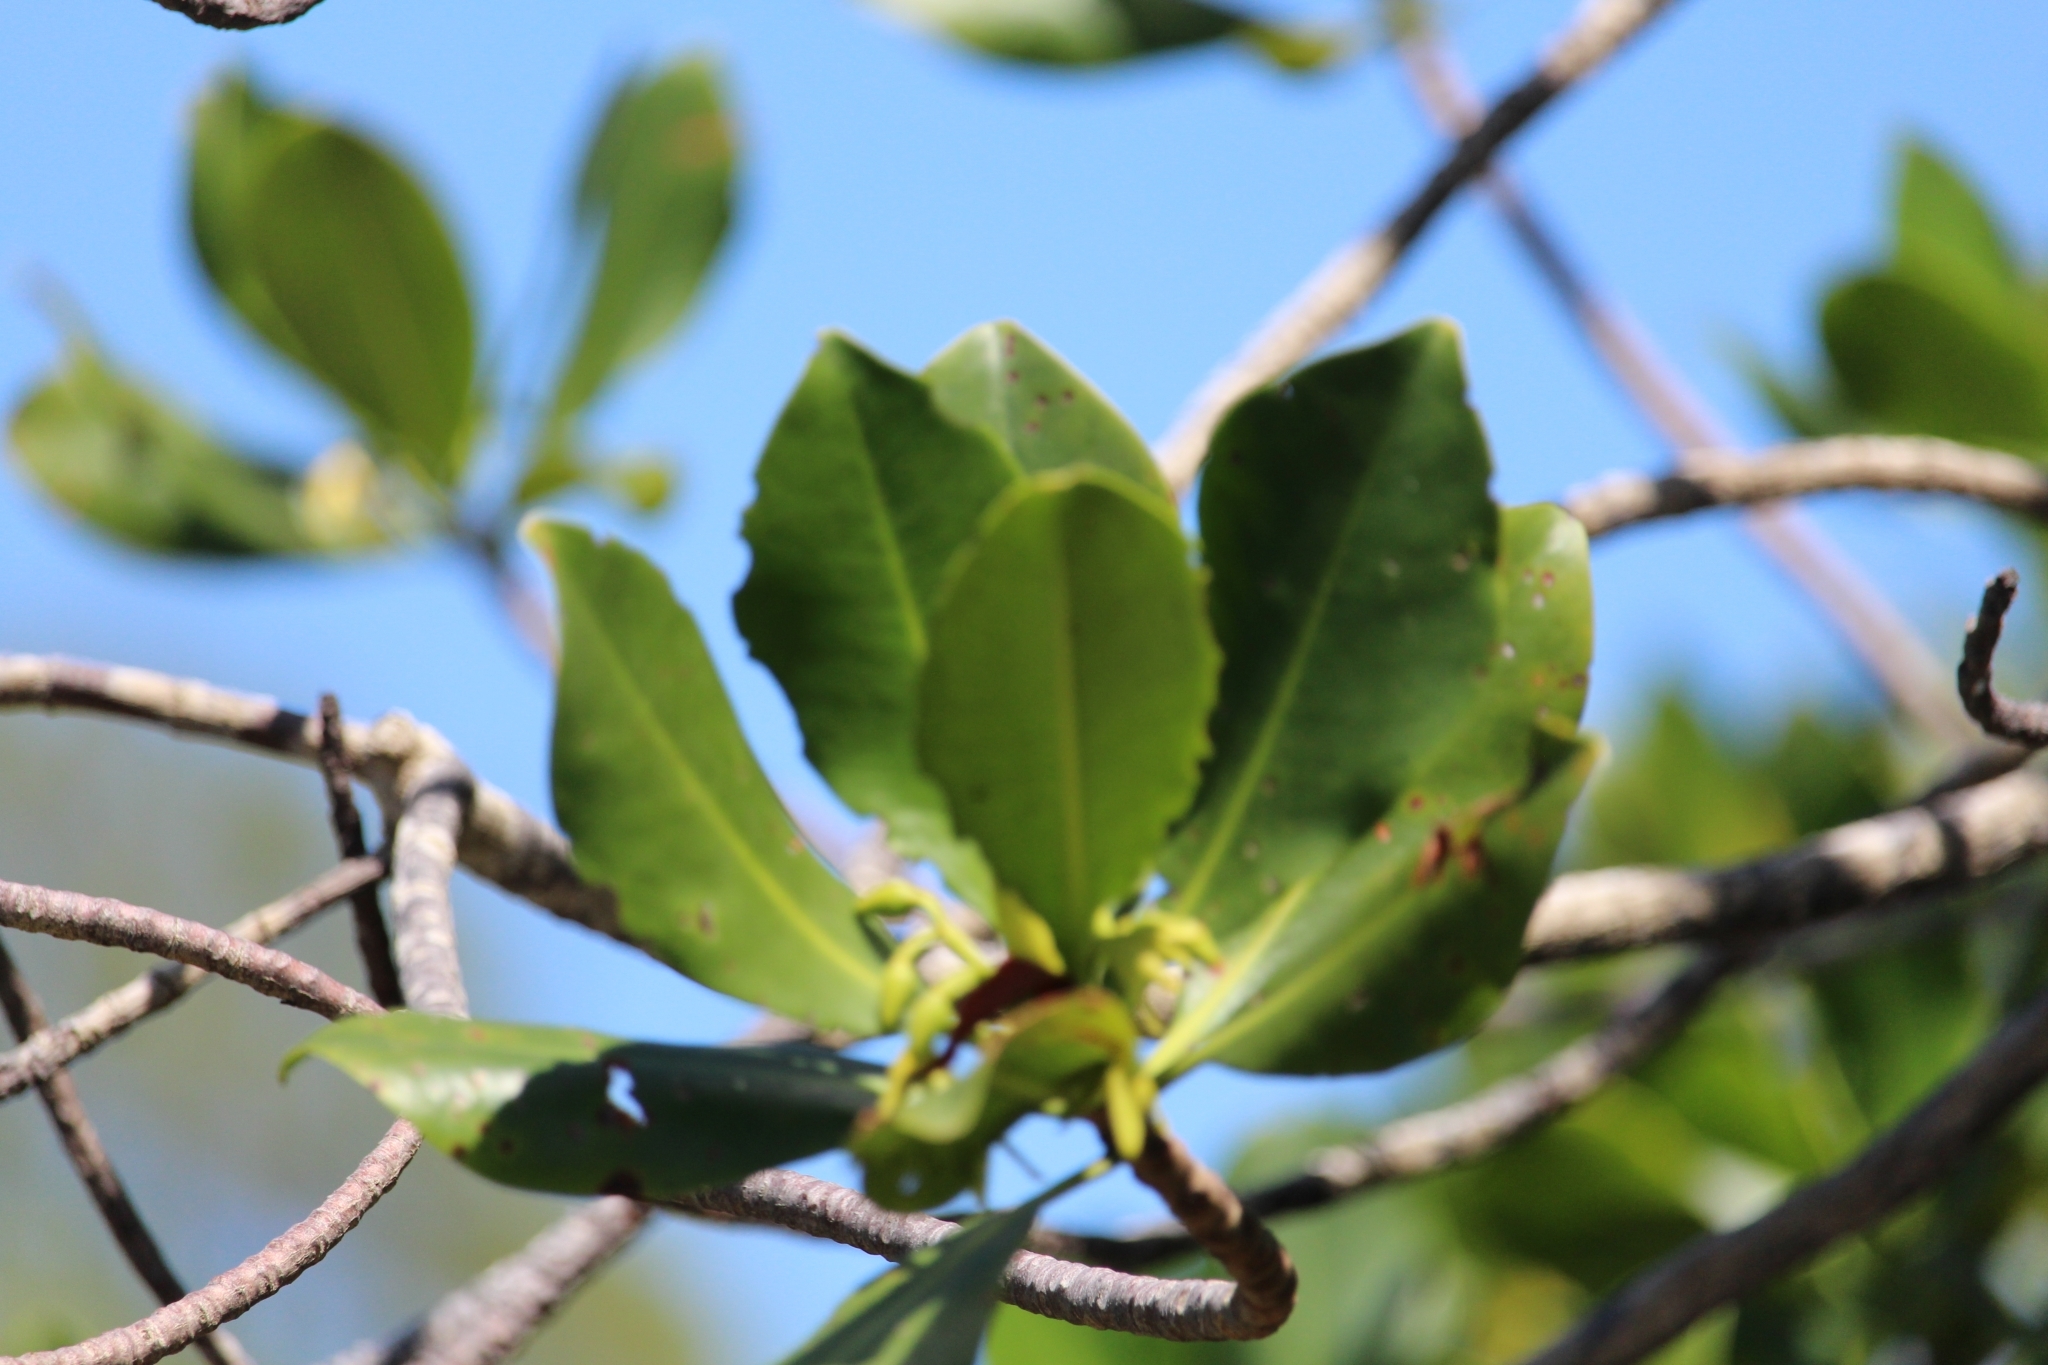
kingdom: Plantae
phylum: Tracheophyta
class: Magnoliopsida
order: Malpighiales
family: Rhizophoraceae
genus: Rhizophora
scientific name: Rhizophora mangle
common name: Red mangrove
